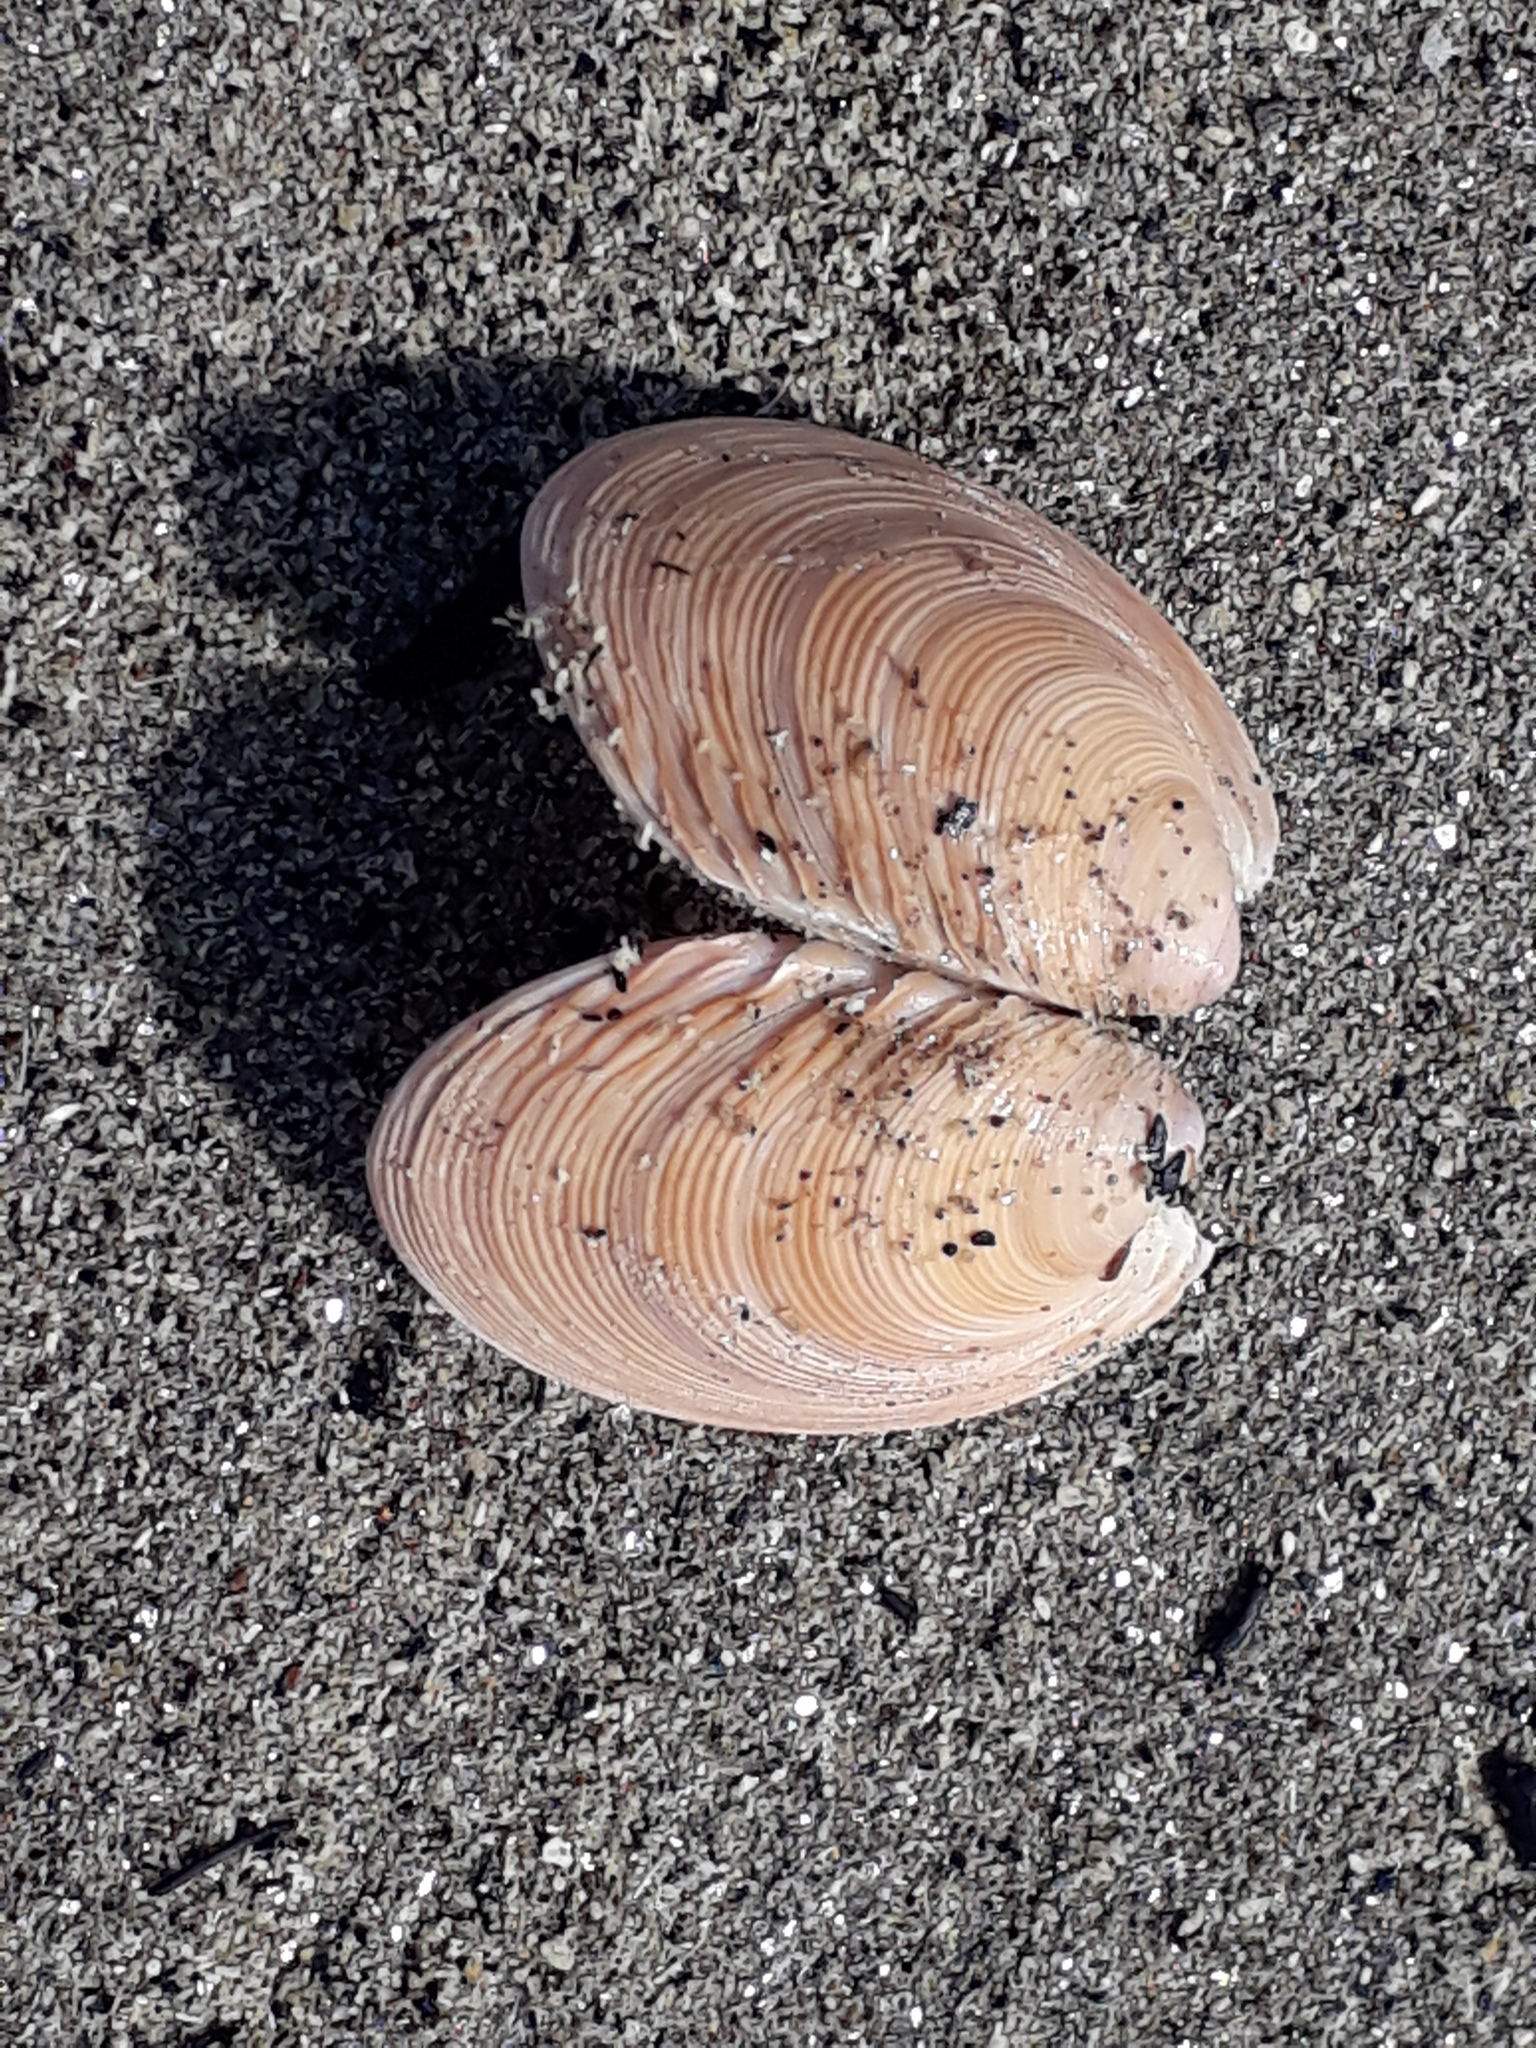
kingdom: Animalia
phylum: Mollusca
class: Bivalvia
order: Venerida
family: Veneridae
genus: Dosinia
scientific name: Dosinia anus
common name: Old-woman dosinia
